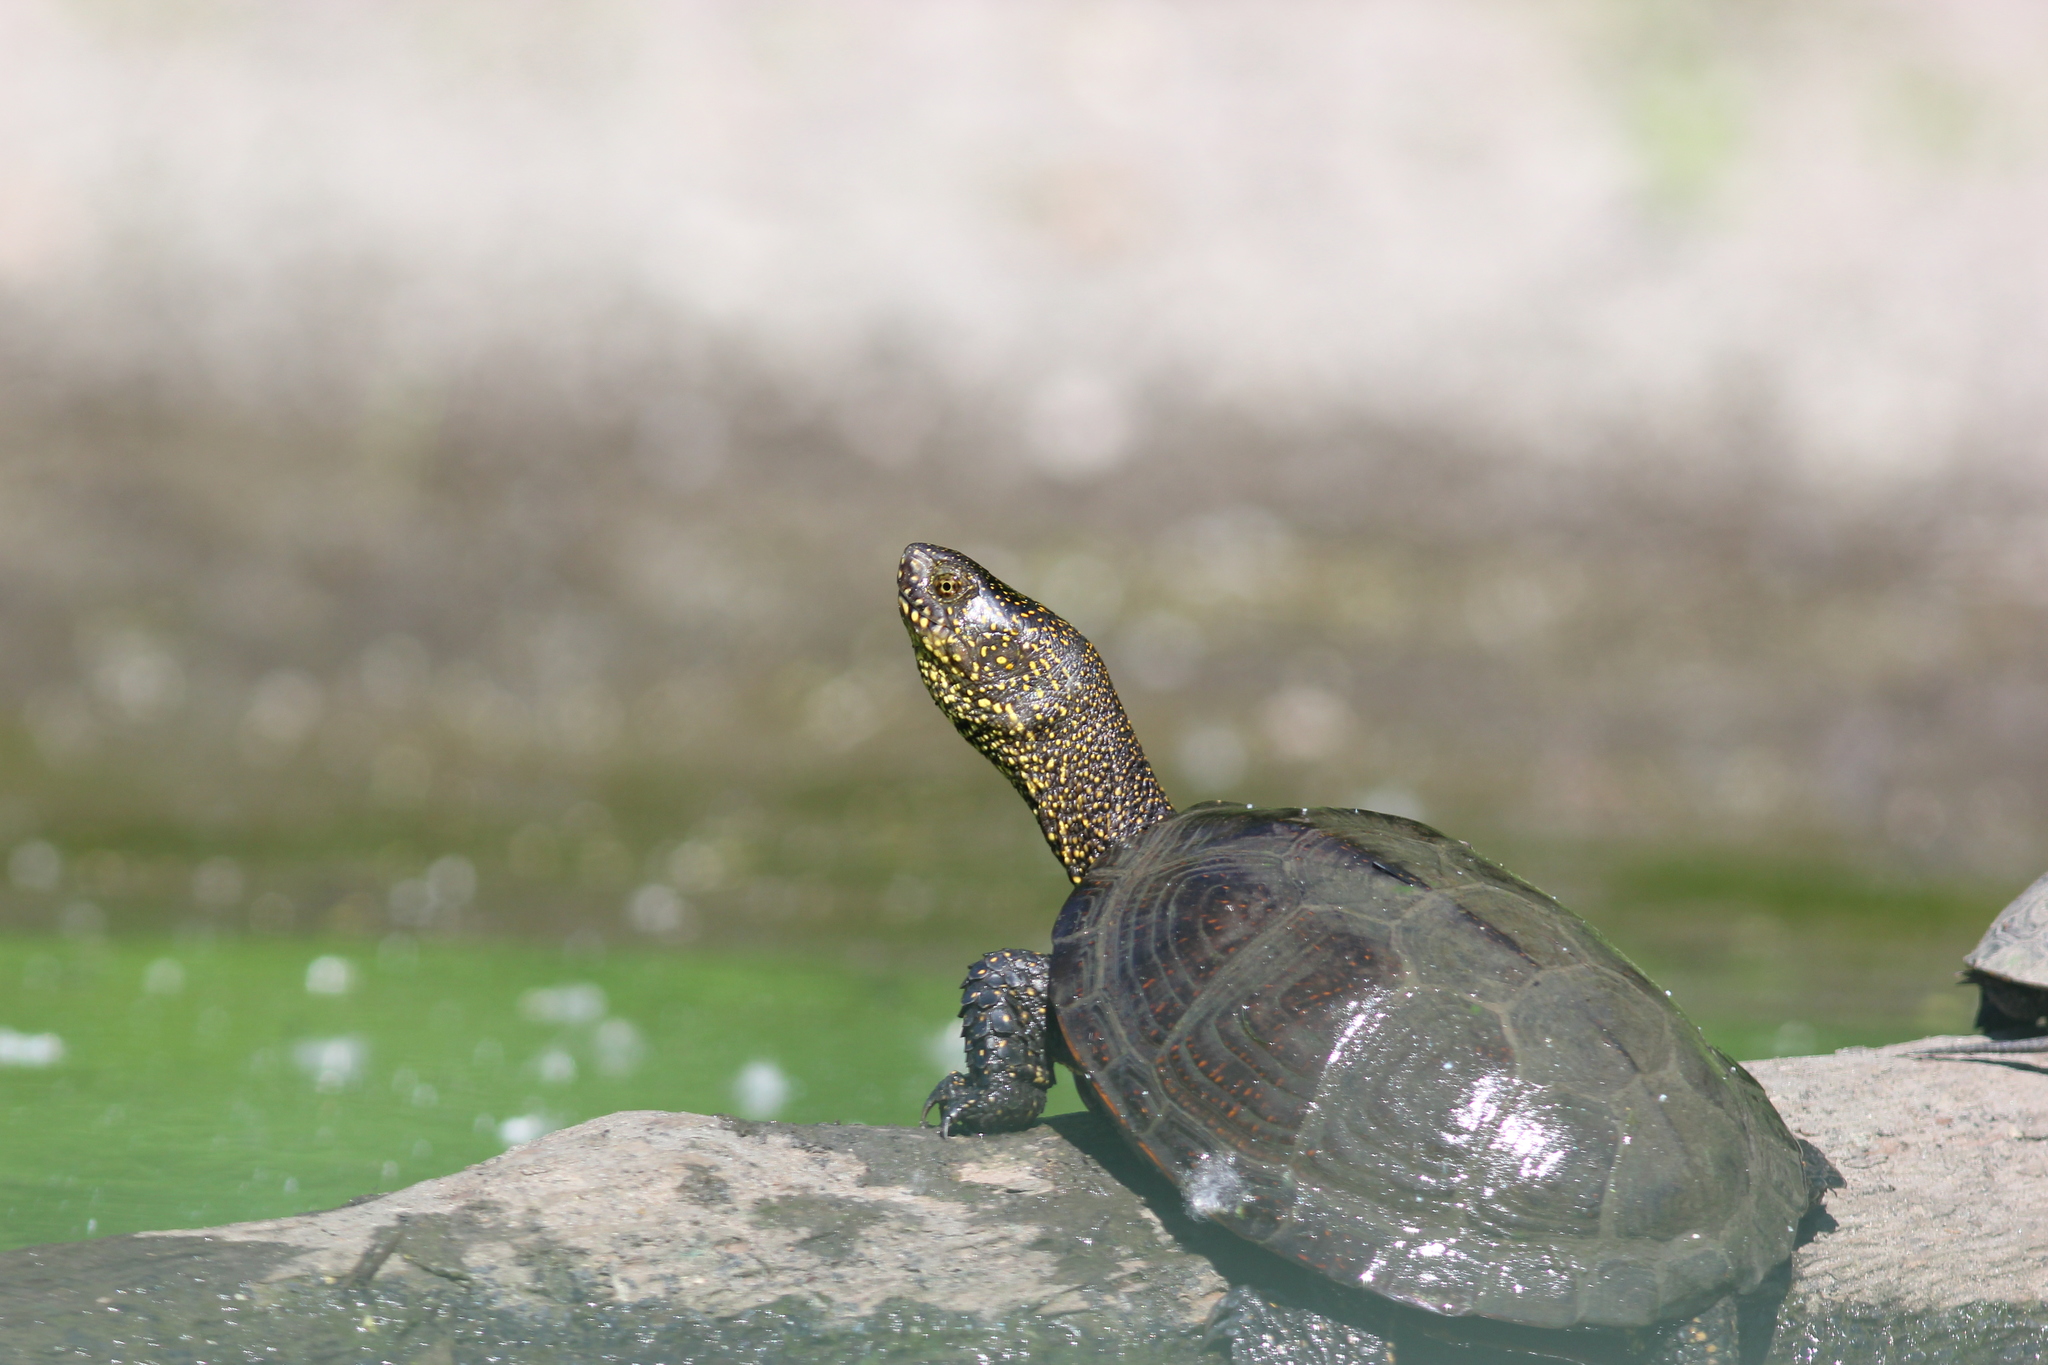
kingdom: Animalia
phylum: Chordata
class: Testudines
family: Emydidae
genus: Emys
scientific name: Emys orbicularis
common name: European pond turtle
